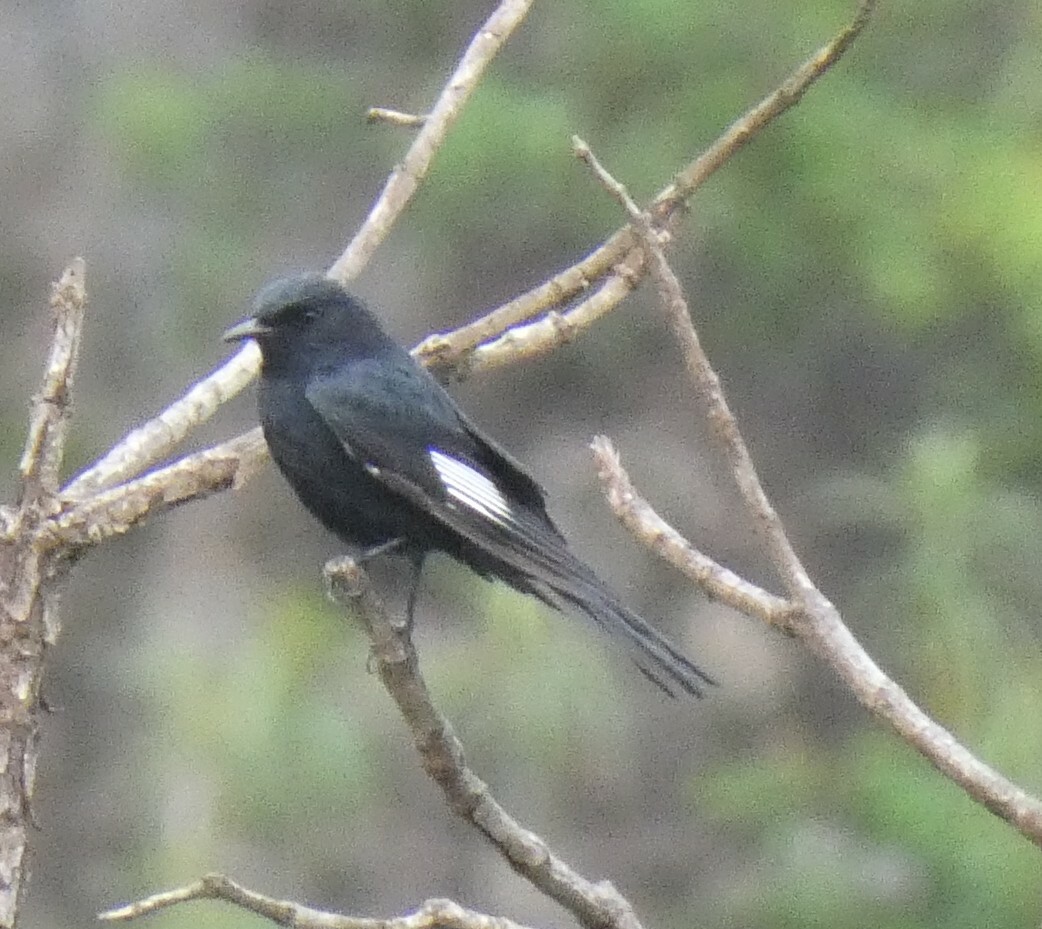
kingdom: Animalia
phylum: Chordata
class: Aves
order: Passeriformes
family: Tyrannidae
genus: Knipolegus
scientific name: Knipolegus lophotes
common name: Crested black tyrant
